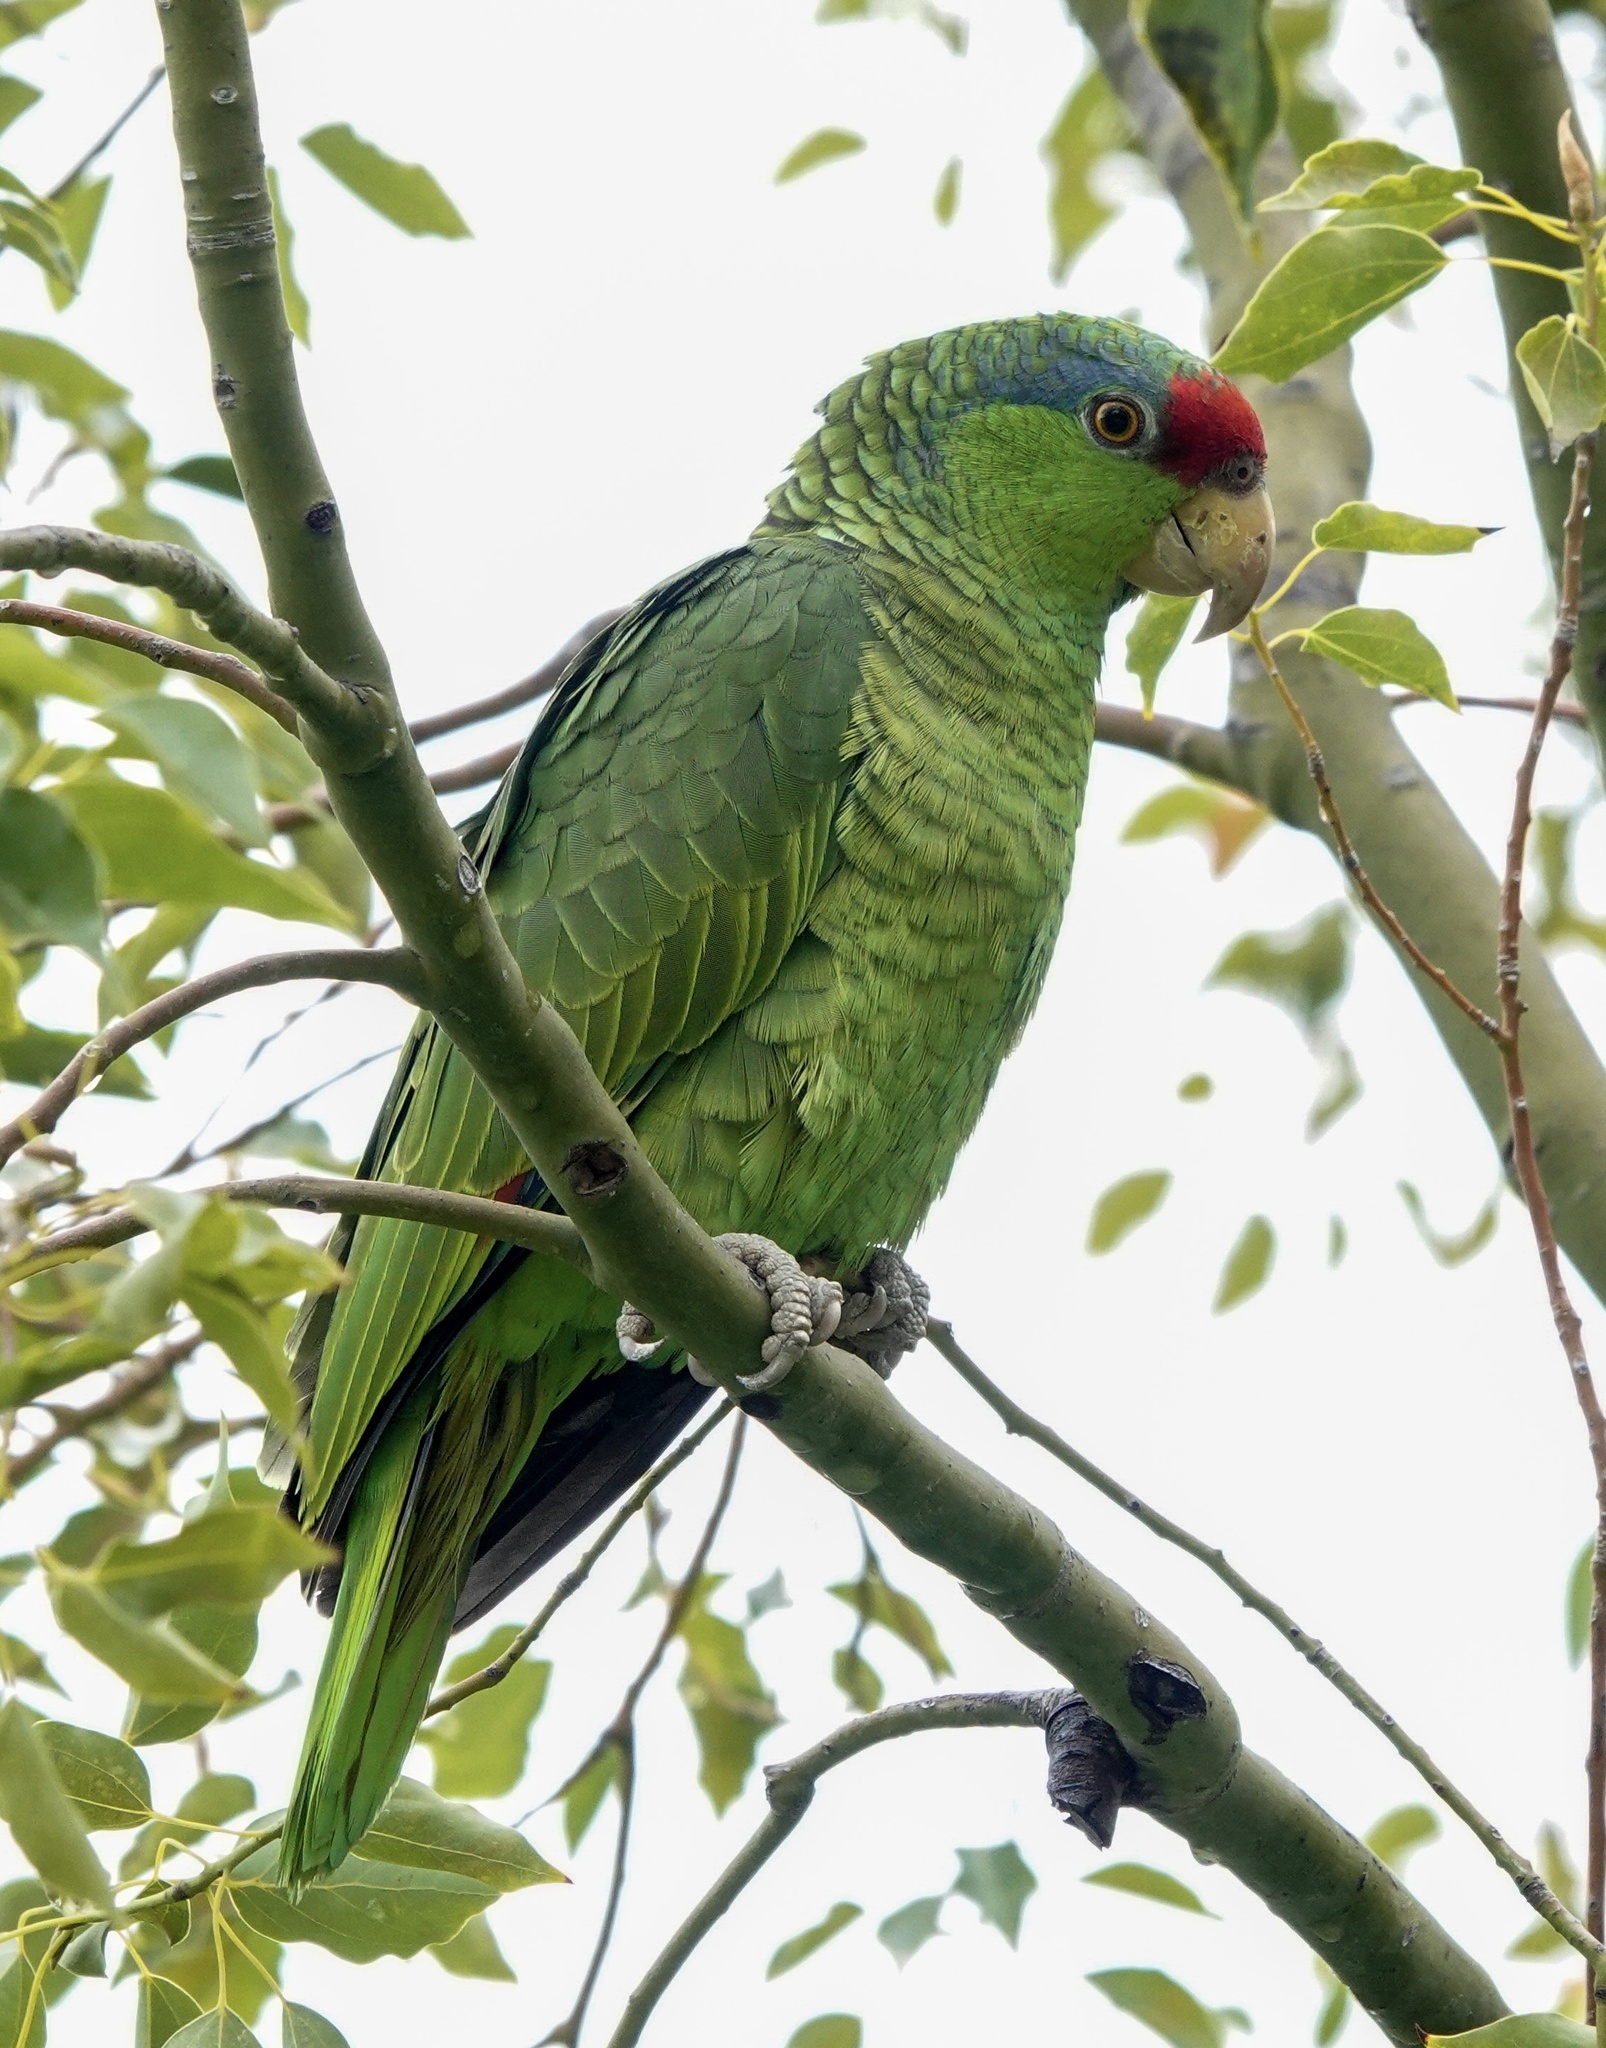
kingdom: Animalia
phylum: Chordata
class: Aves
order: Psittaciformes
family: Psittacidae
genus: Amazona
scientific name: Amazona
